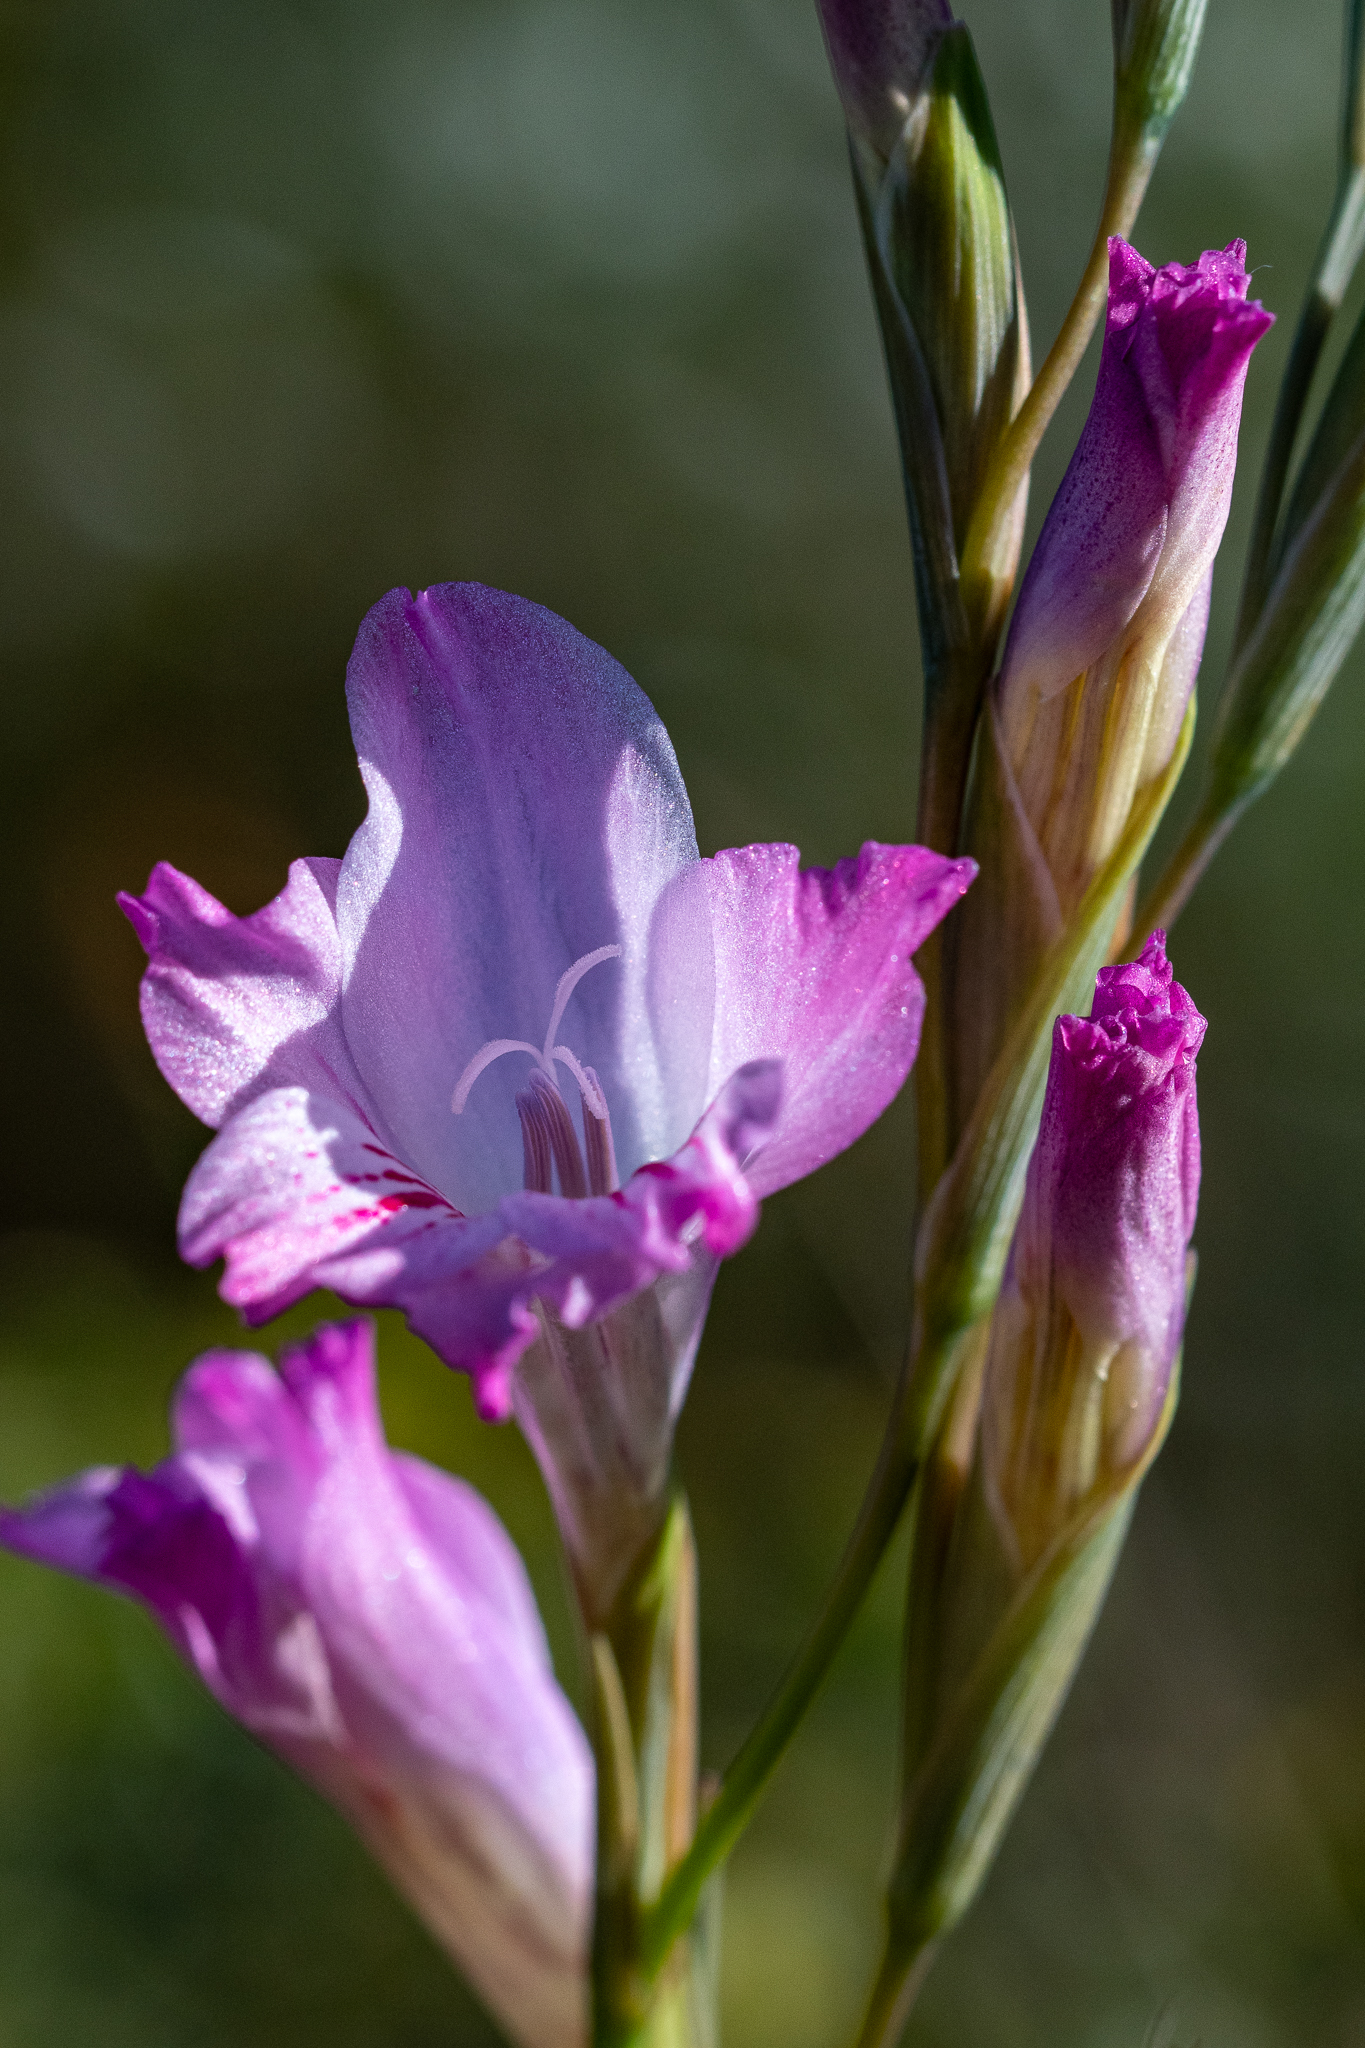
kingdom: Plantae
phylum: Tracheophyta
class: Liliopsida
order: Asparagales
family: Iridaceae
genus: Gladiolus
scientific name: Gladiolus hirsutus
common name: Small pink afrikaner
